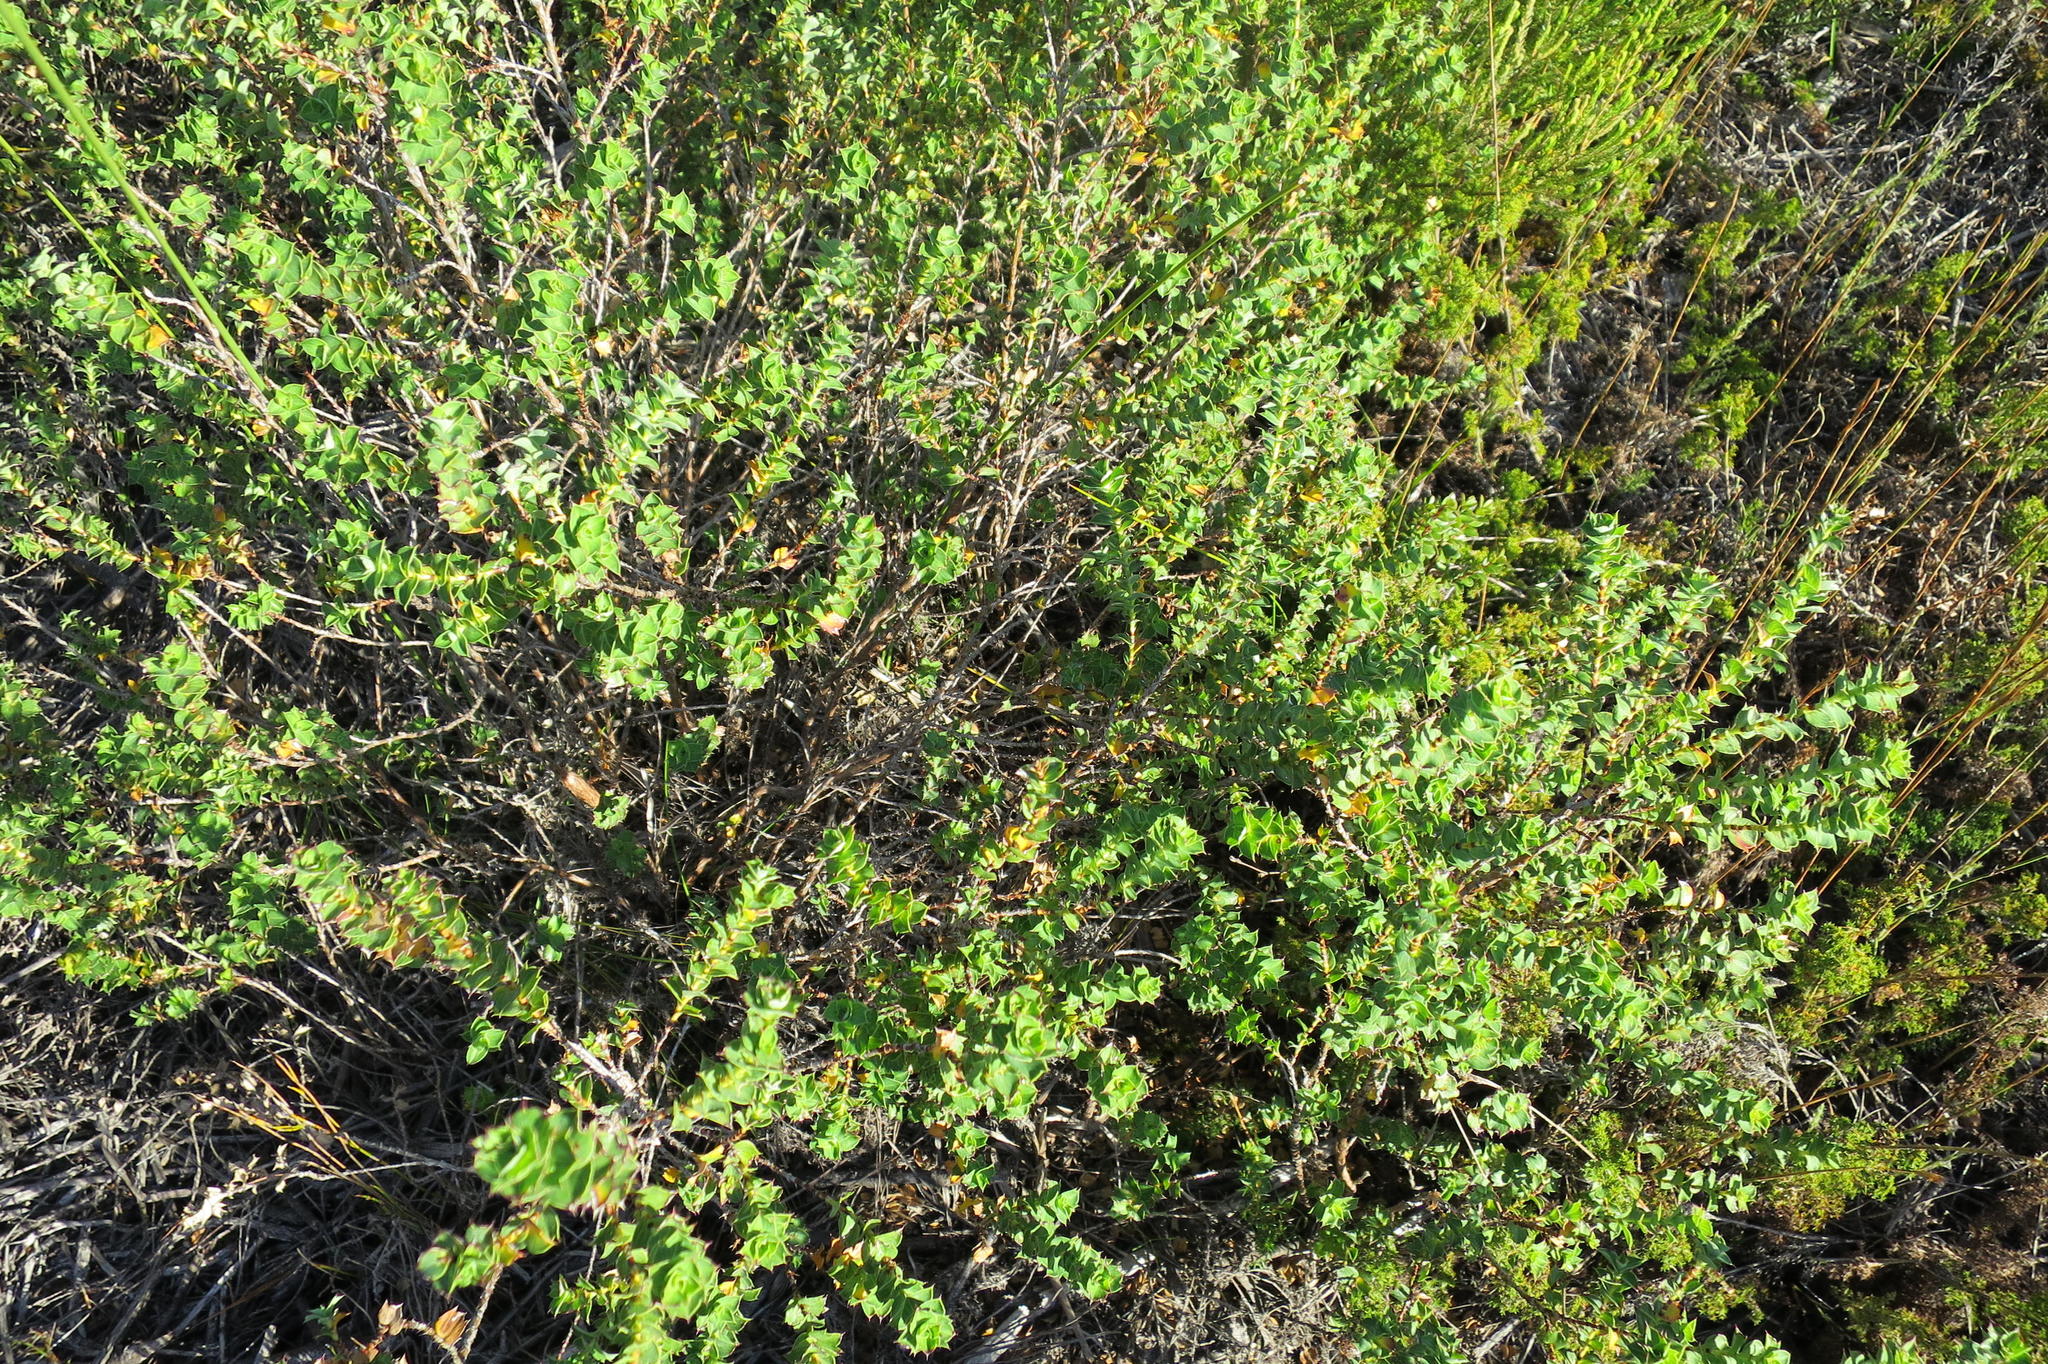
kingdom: Plantae
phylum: Tracheophyta
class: Magnoliopsida
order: Rosales
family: Rosaceae
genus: Cliffortia
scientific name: Cliffortia schlechteri
